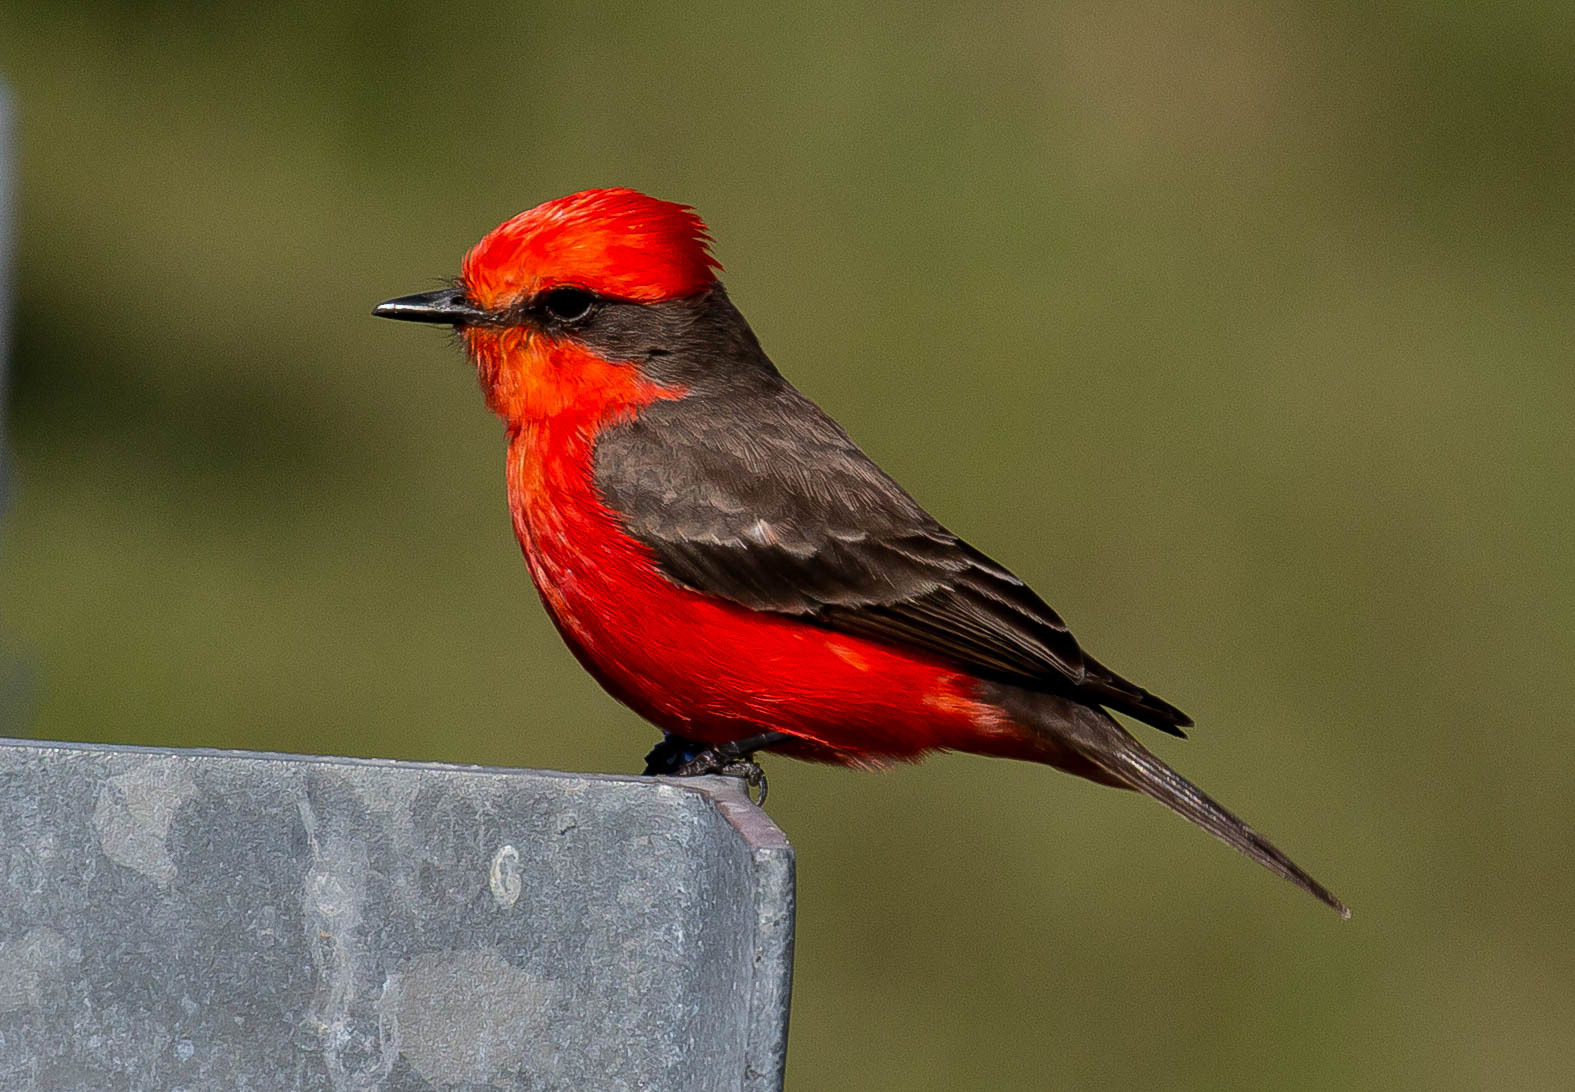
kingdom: Animalia
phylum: Chordata
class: Aves
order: Passeriformes
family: Tyrannidae
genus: Pyrocephalus
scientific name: Pyrocephalus rubinus
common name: Vermilion flycatcher
